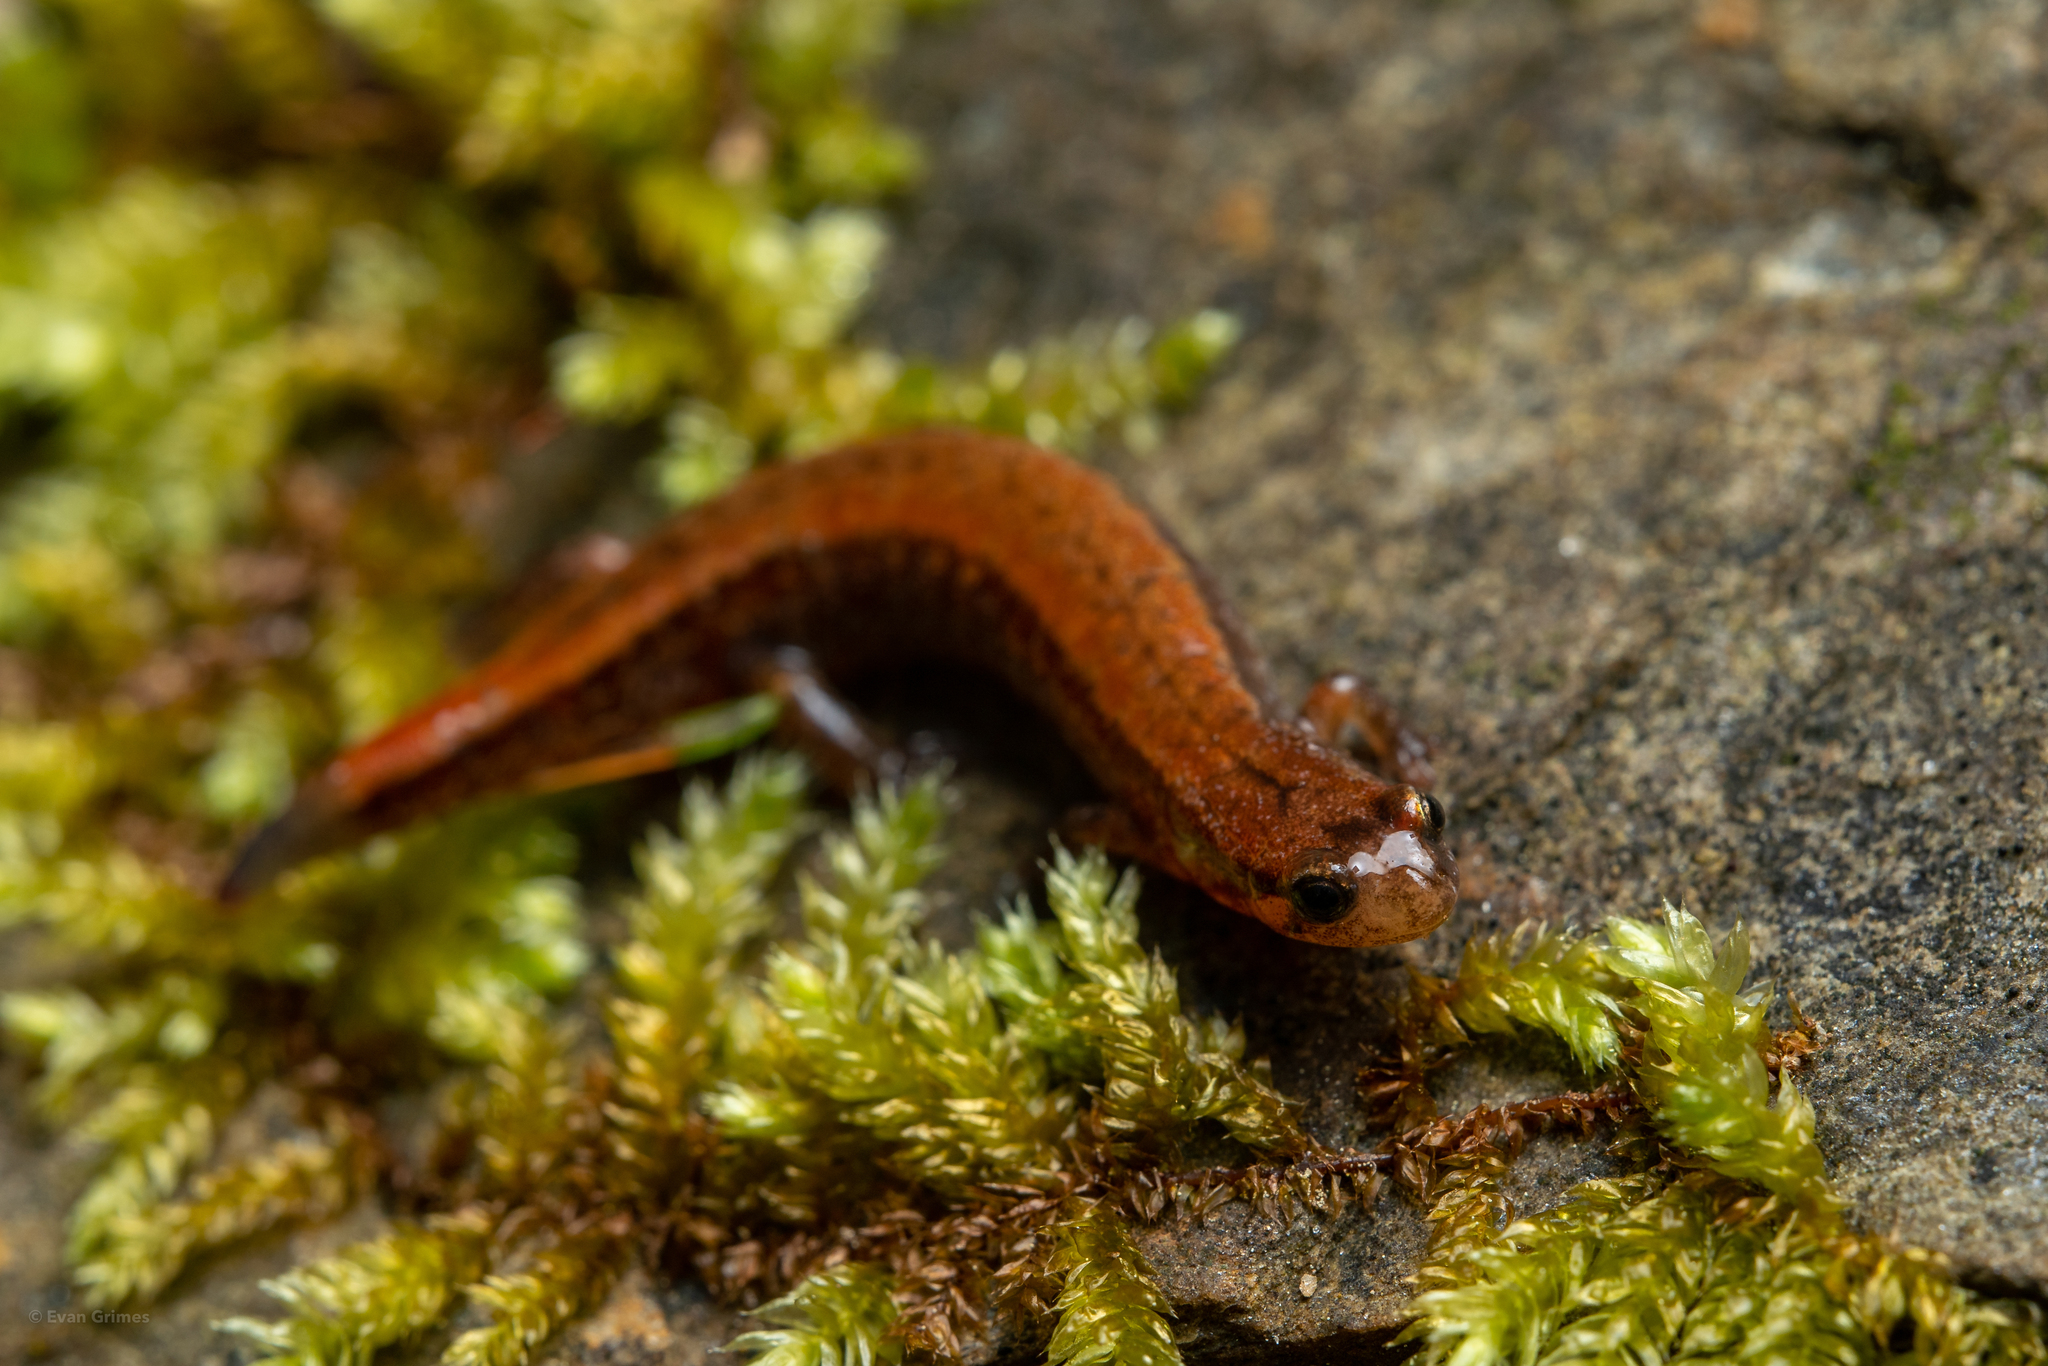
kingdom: Animalia
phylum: Chordata
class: Amphibia
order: Caudata
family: Plethodontidae
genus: Desmognathus
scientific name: Desmognathus aeneus
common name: Seepage salamander
